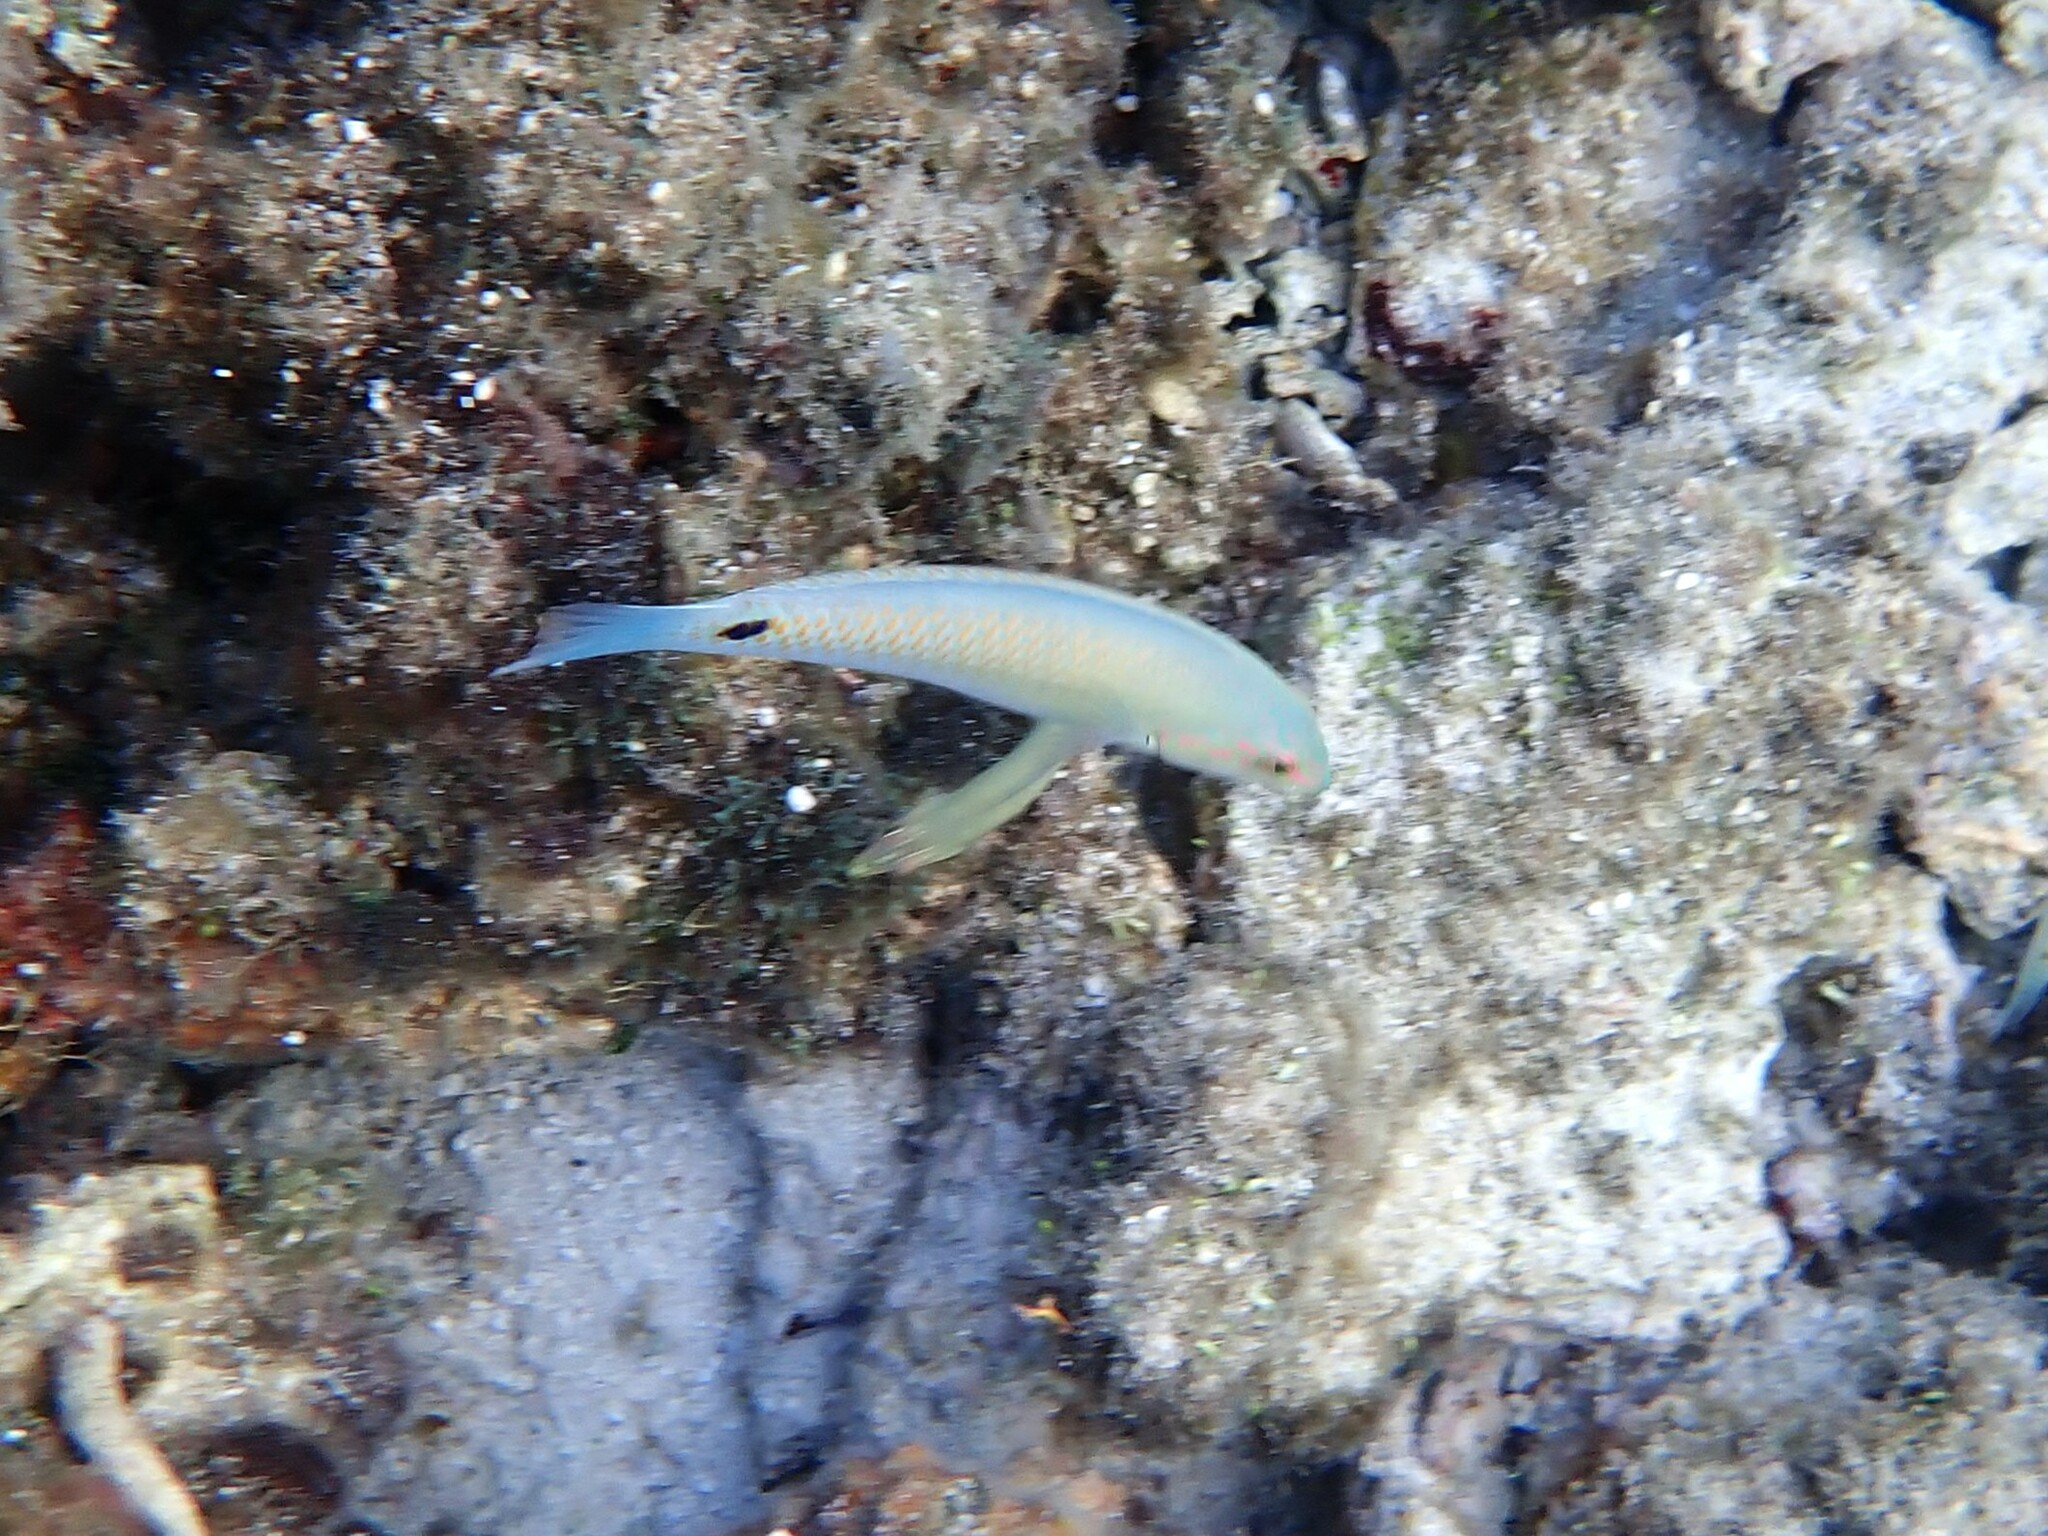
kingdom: Animalia
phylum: Chordata
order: Perciformes
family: Labridae
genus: Halichoeres
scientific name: Halichoeres trimaculatus
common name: Three-spot wrasse
